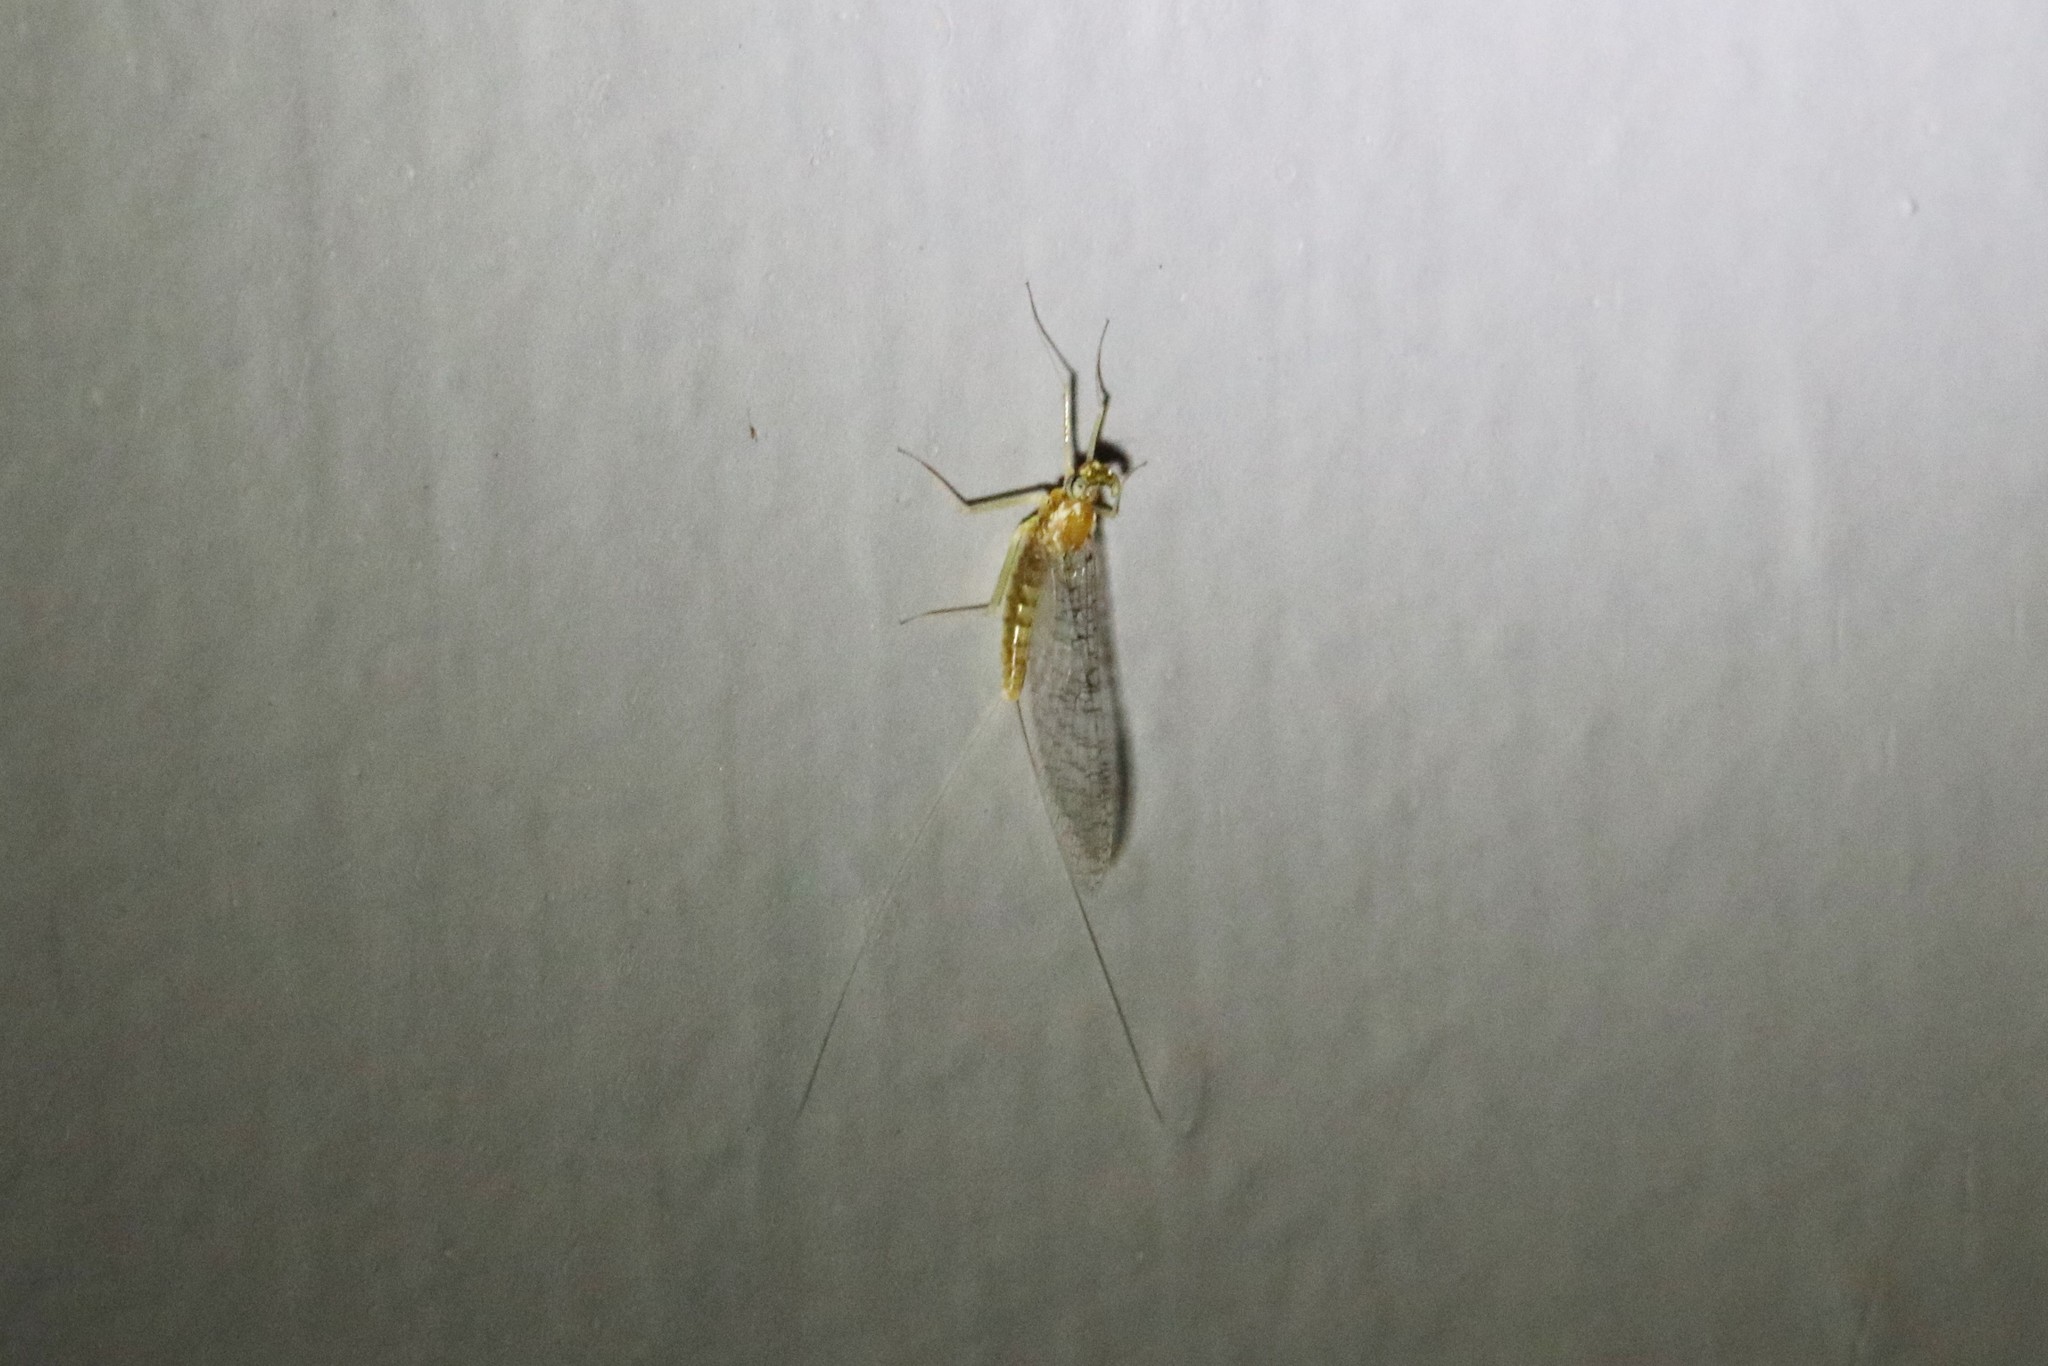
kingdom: Animalia
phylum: Arthropoda
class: Insecta
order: Ephemeroptera
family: Heptageniidae
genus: Leucrocuta
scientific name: Leucrocuta aphrodite
